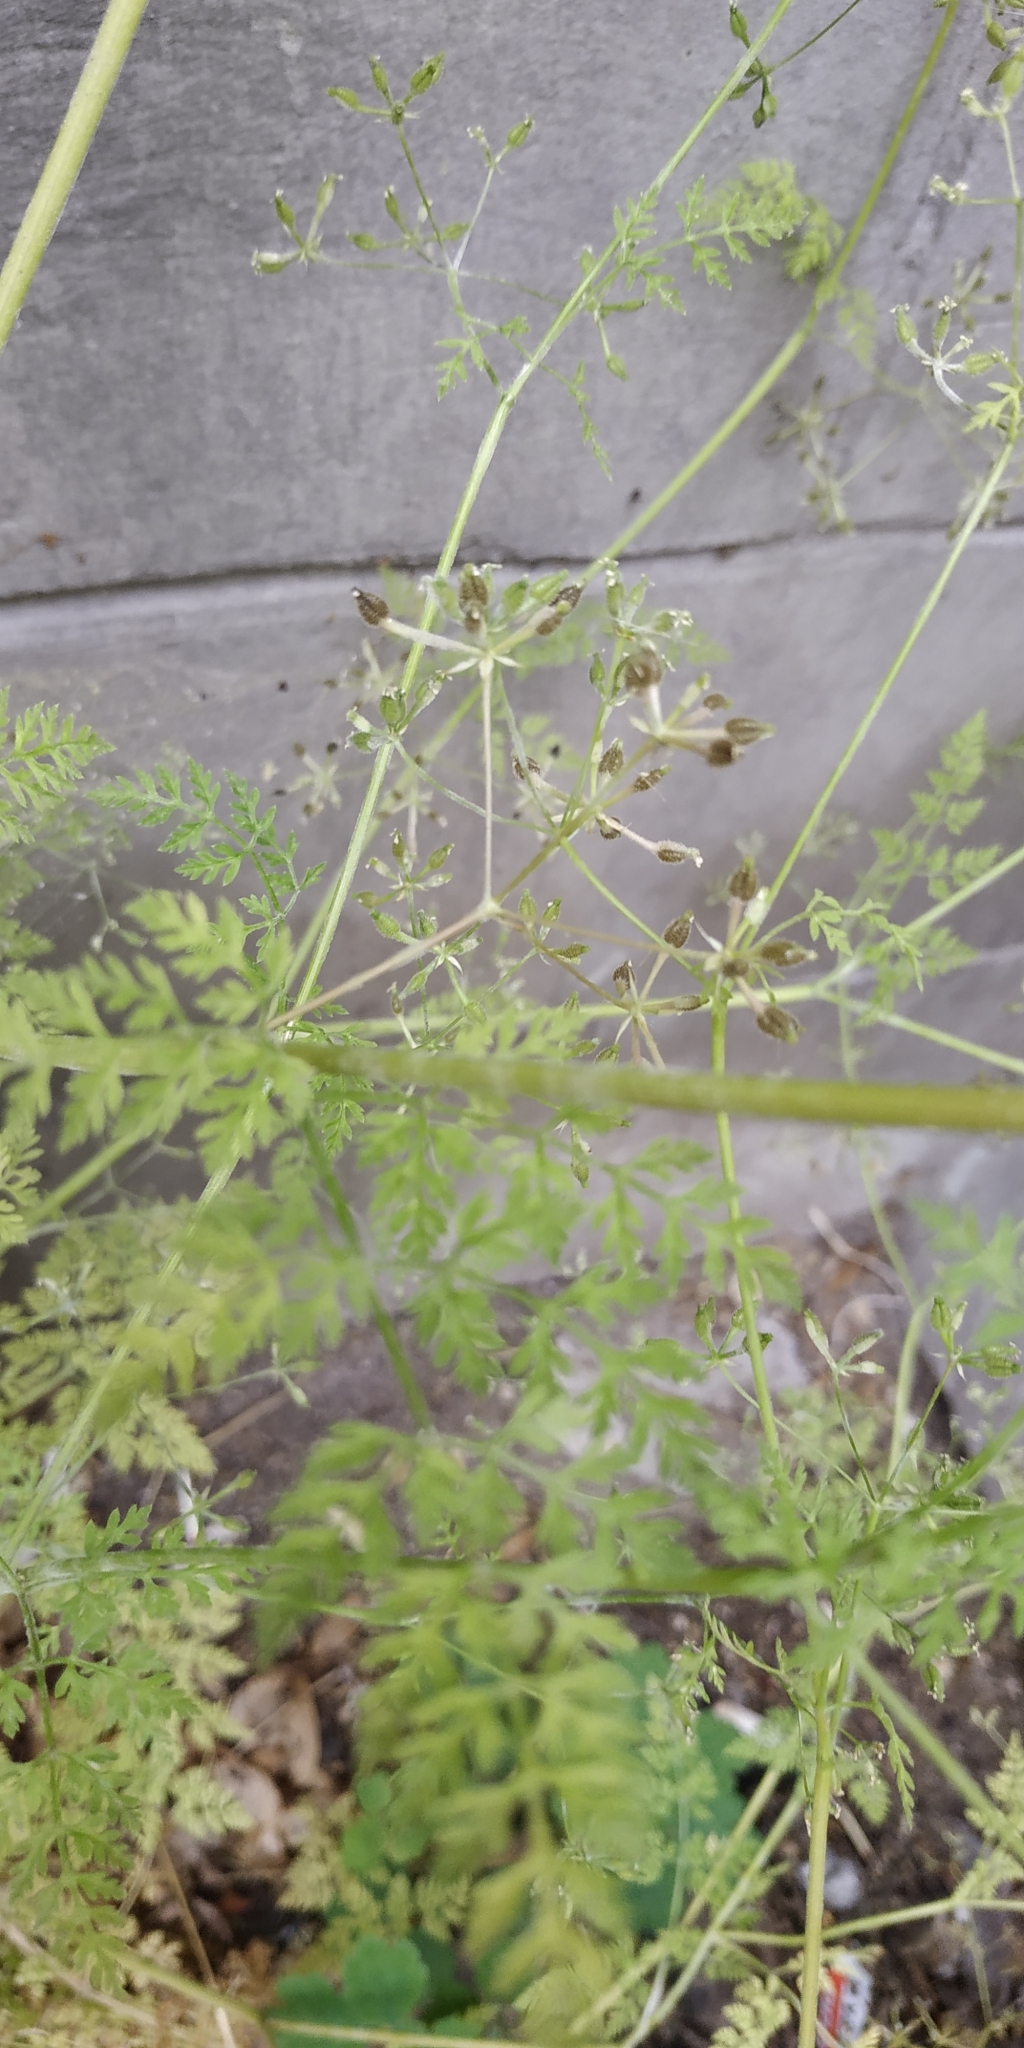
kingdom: Plantae
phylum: Tracheophyta
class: Magnoliopsida
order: Apiales
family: Apiaceae
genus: Anthriscus
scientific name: Anthriscus caucalis
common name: Bur chervil
